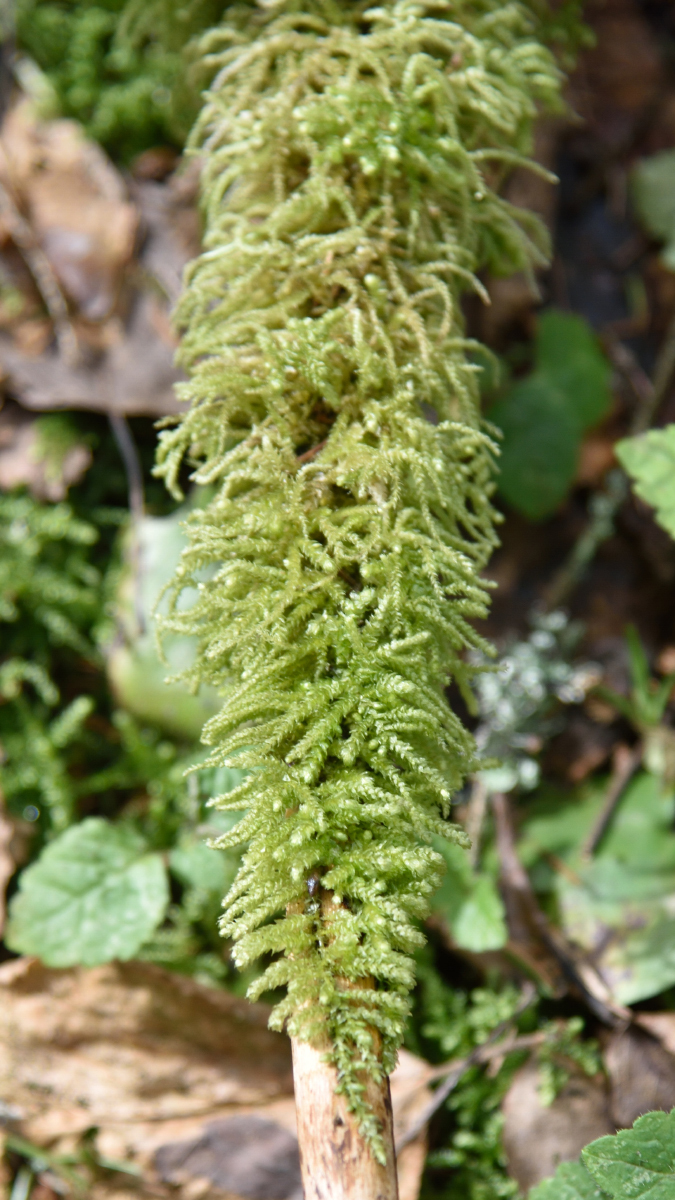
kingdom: Plantae
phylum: Bryophyta
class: Bryopsida
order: Hypnales
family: Brachytheciaceae
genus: Eurhynchium
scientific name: Eurhynchium angustirete
